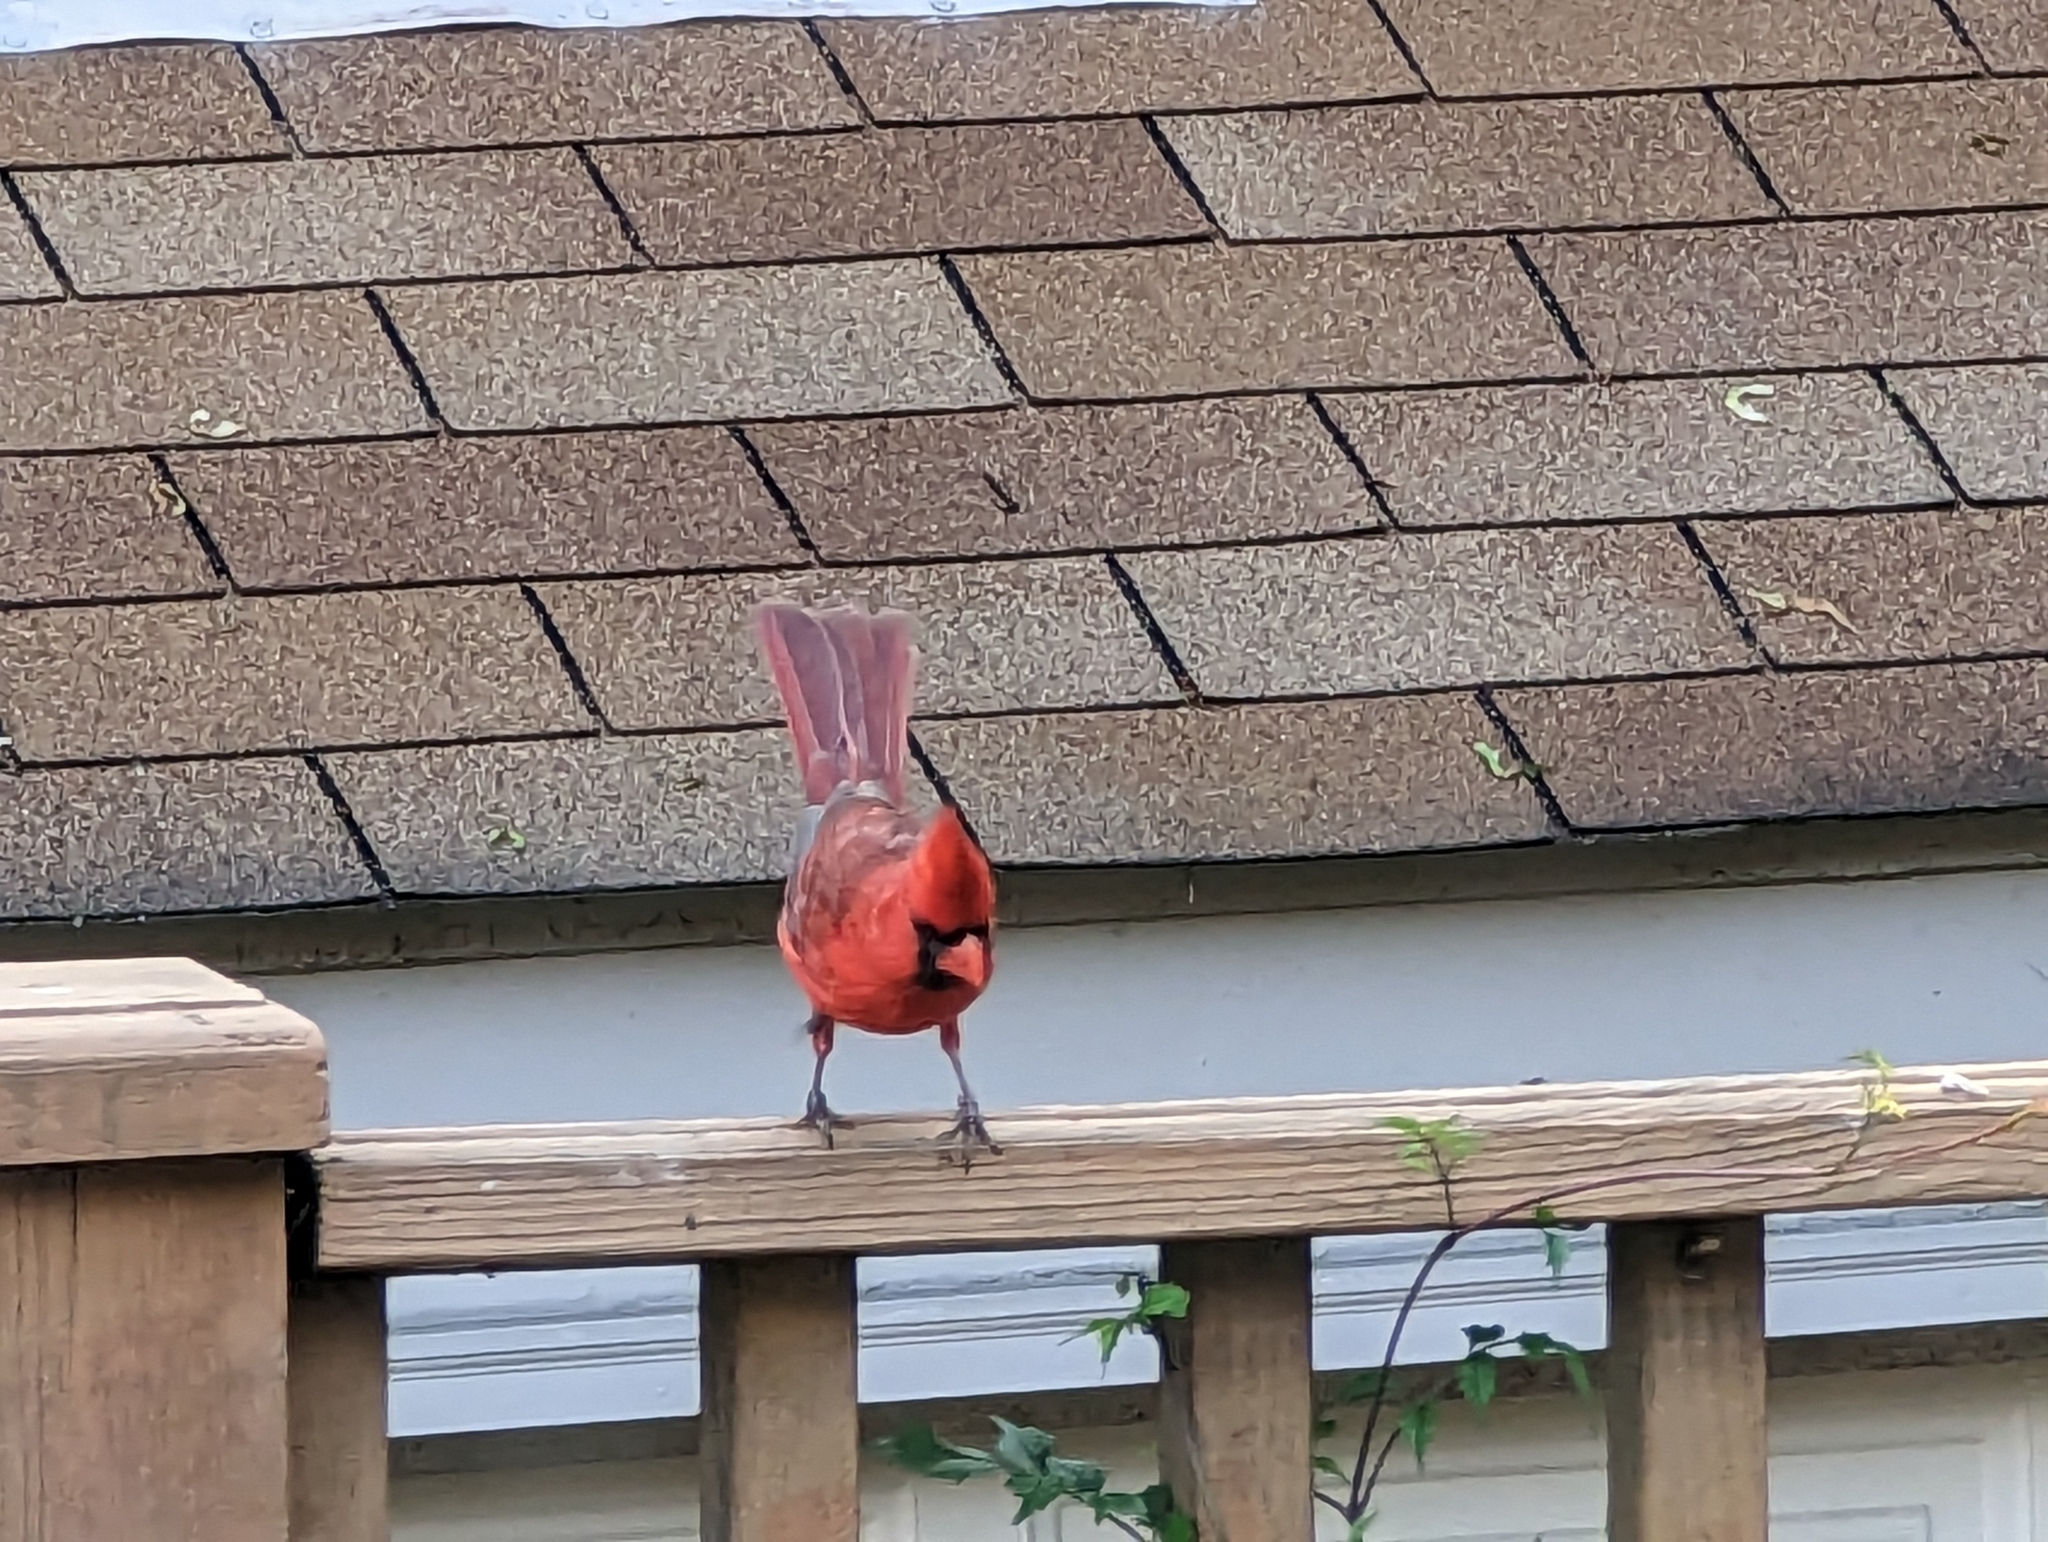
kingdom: Animalia
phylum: Chordata
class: Aves
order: Passeriformes
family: Cardinalidae
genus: Cardinalis
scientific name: Cardinalis cardinalis
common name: Northern cardinal
